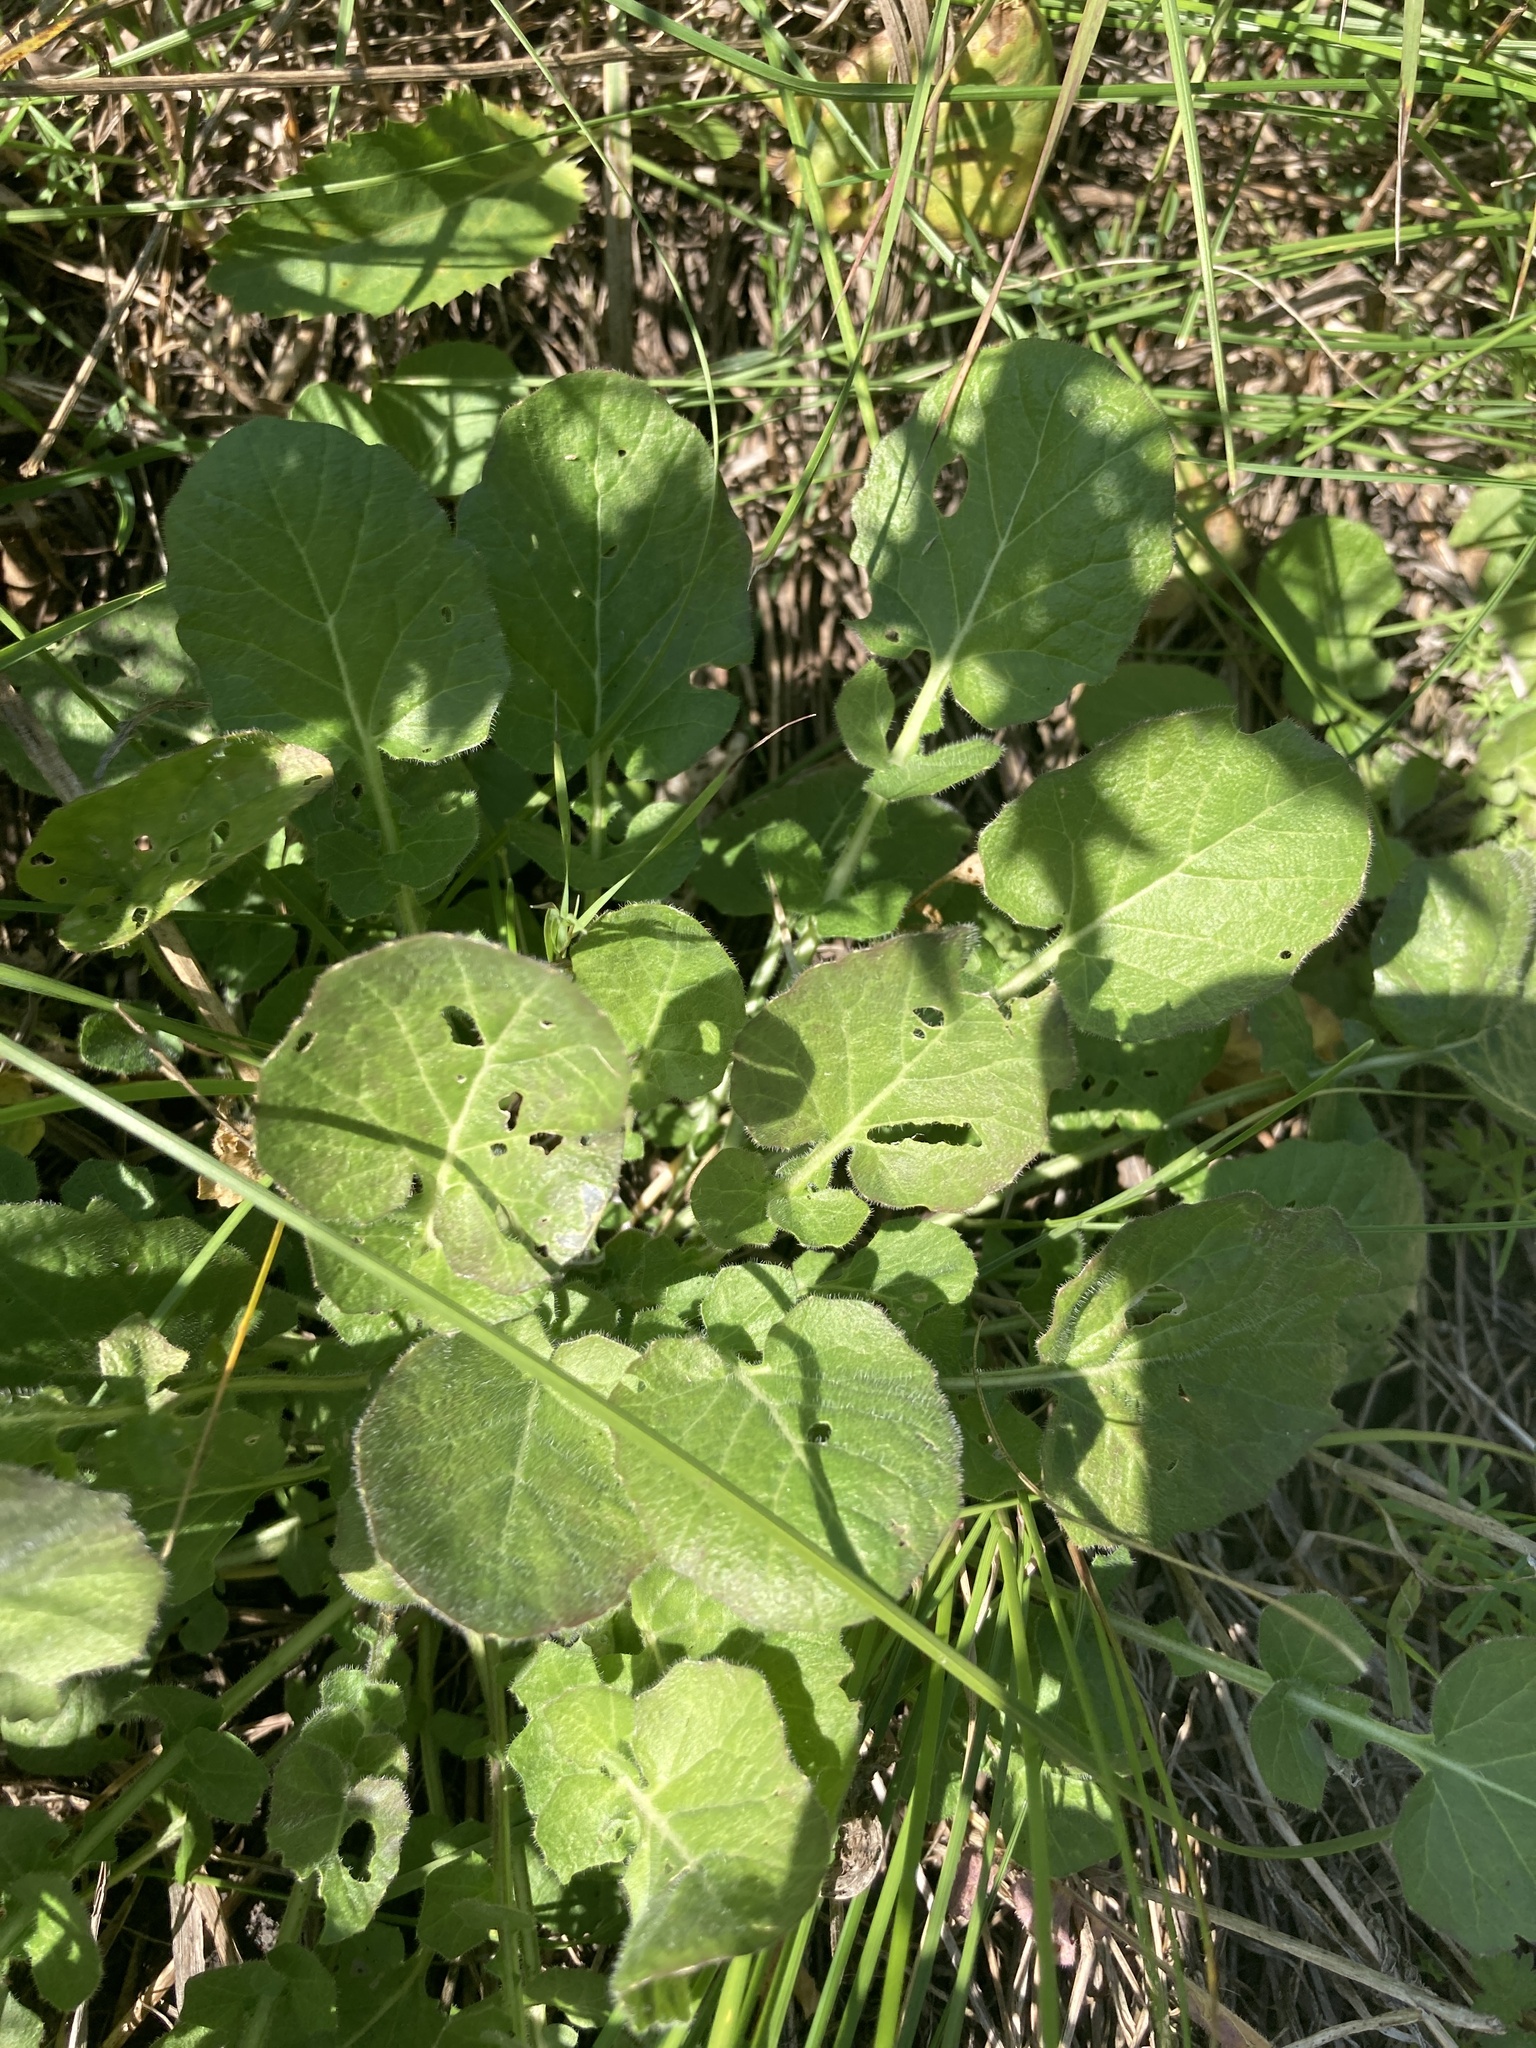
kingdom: Plantae
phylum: Tracheophyta
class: Magnoliopsida
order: Brassicales
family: Brassicaceae
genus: Barbarea
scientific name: Barbarea vulgaris
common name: Cressy-greens
